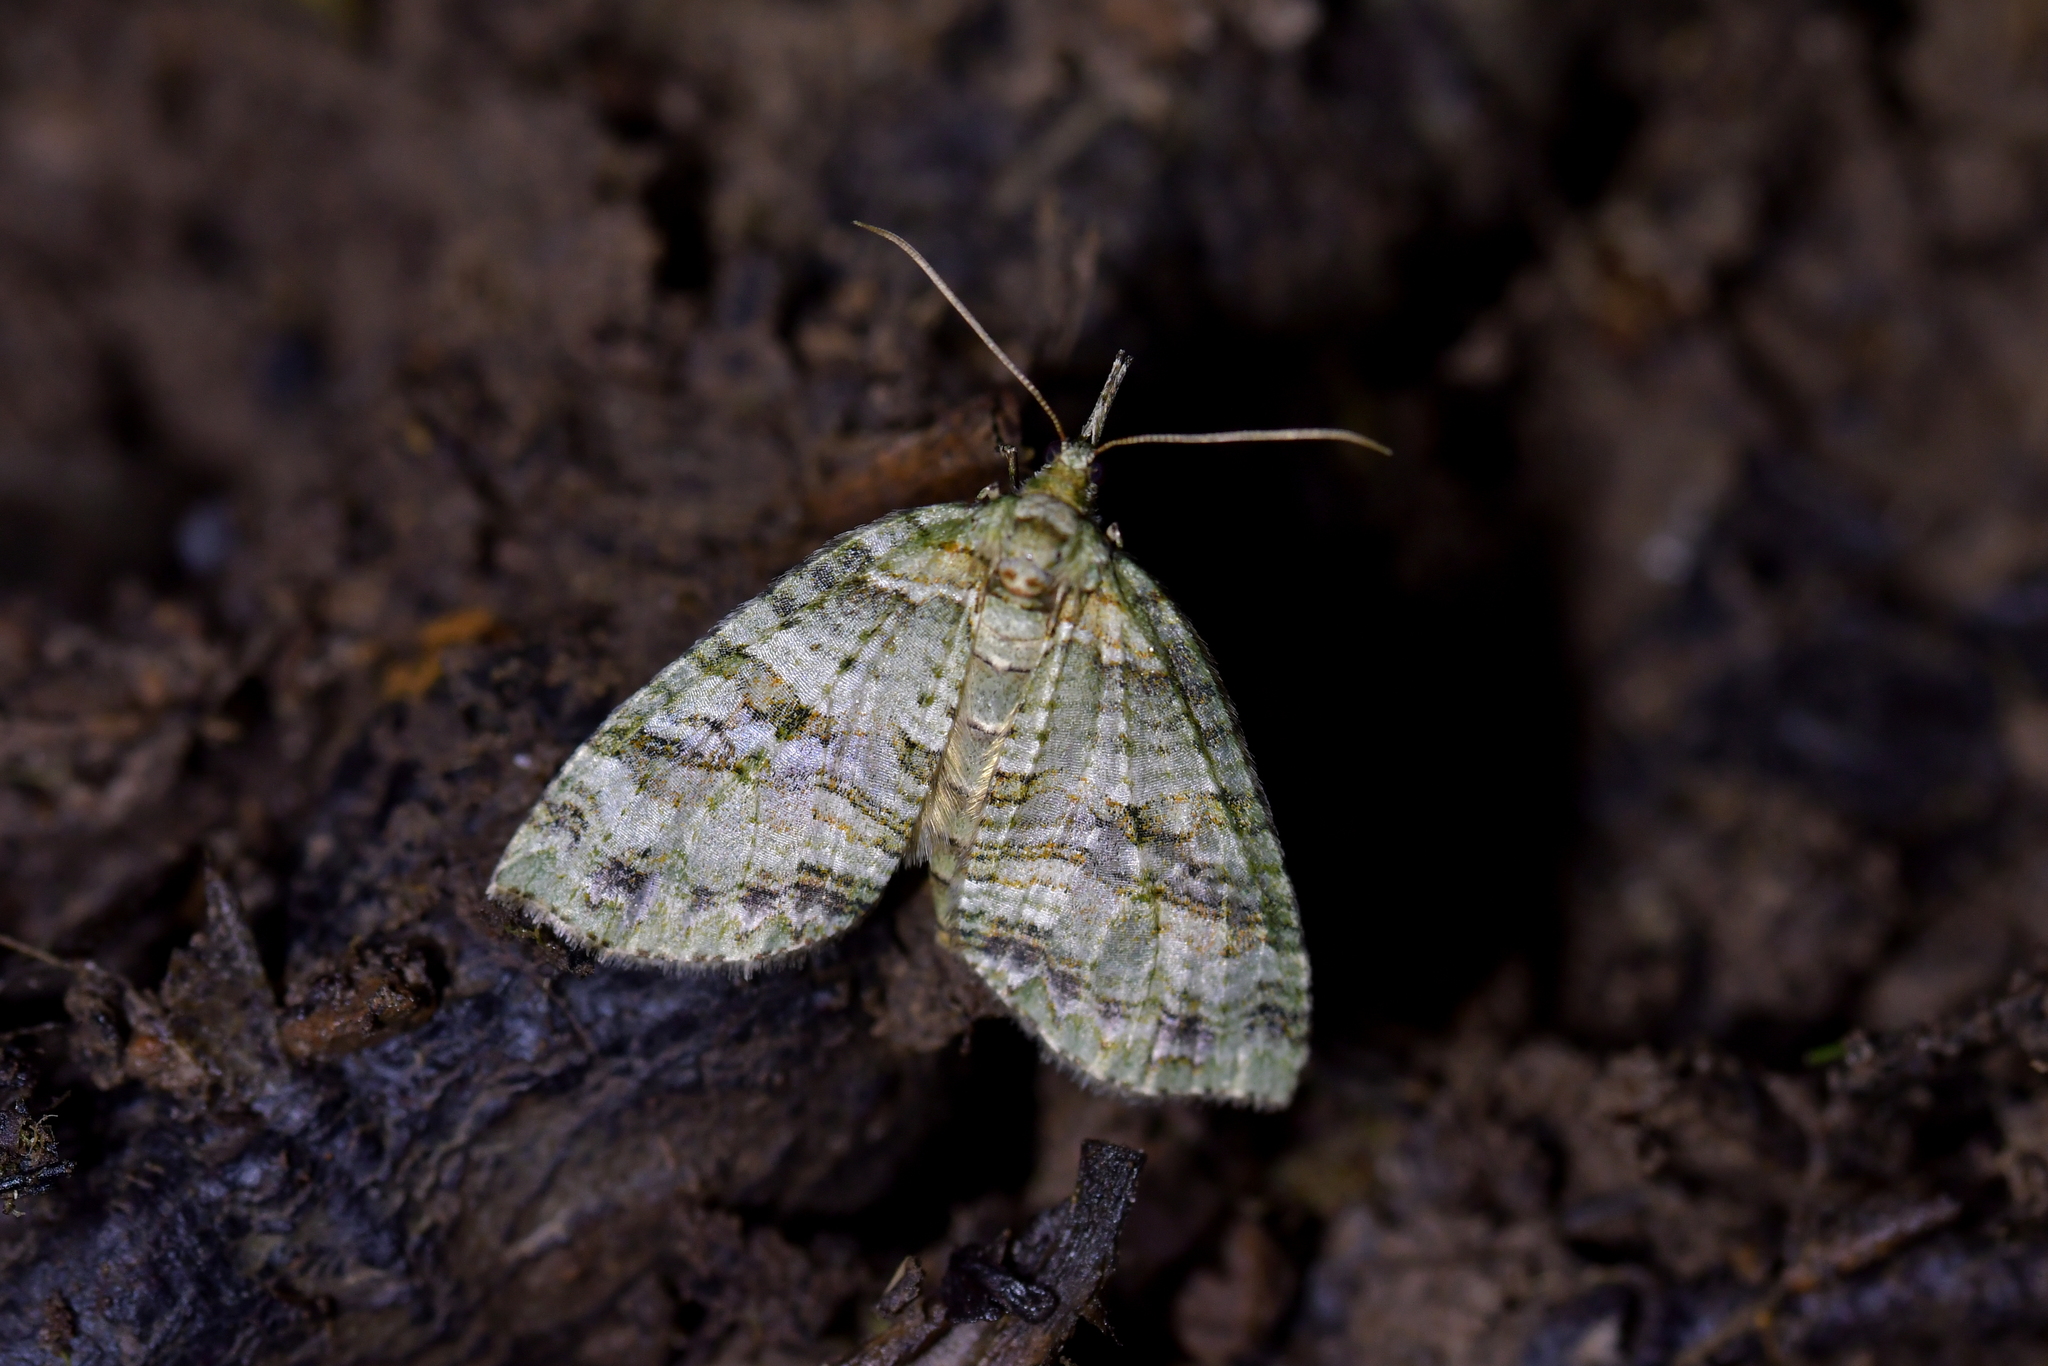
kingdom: Animalia
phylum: Arthropoda
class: Insecta
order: Lepidoptera
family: Geometridae
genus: Tatosoma
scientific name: Tatosoma fasciata
